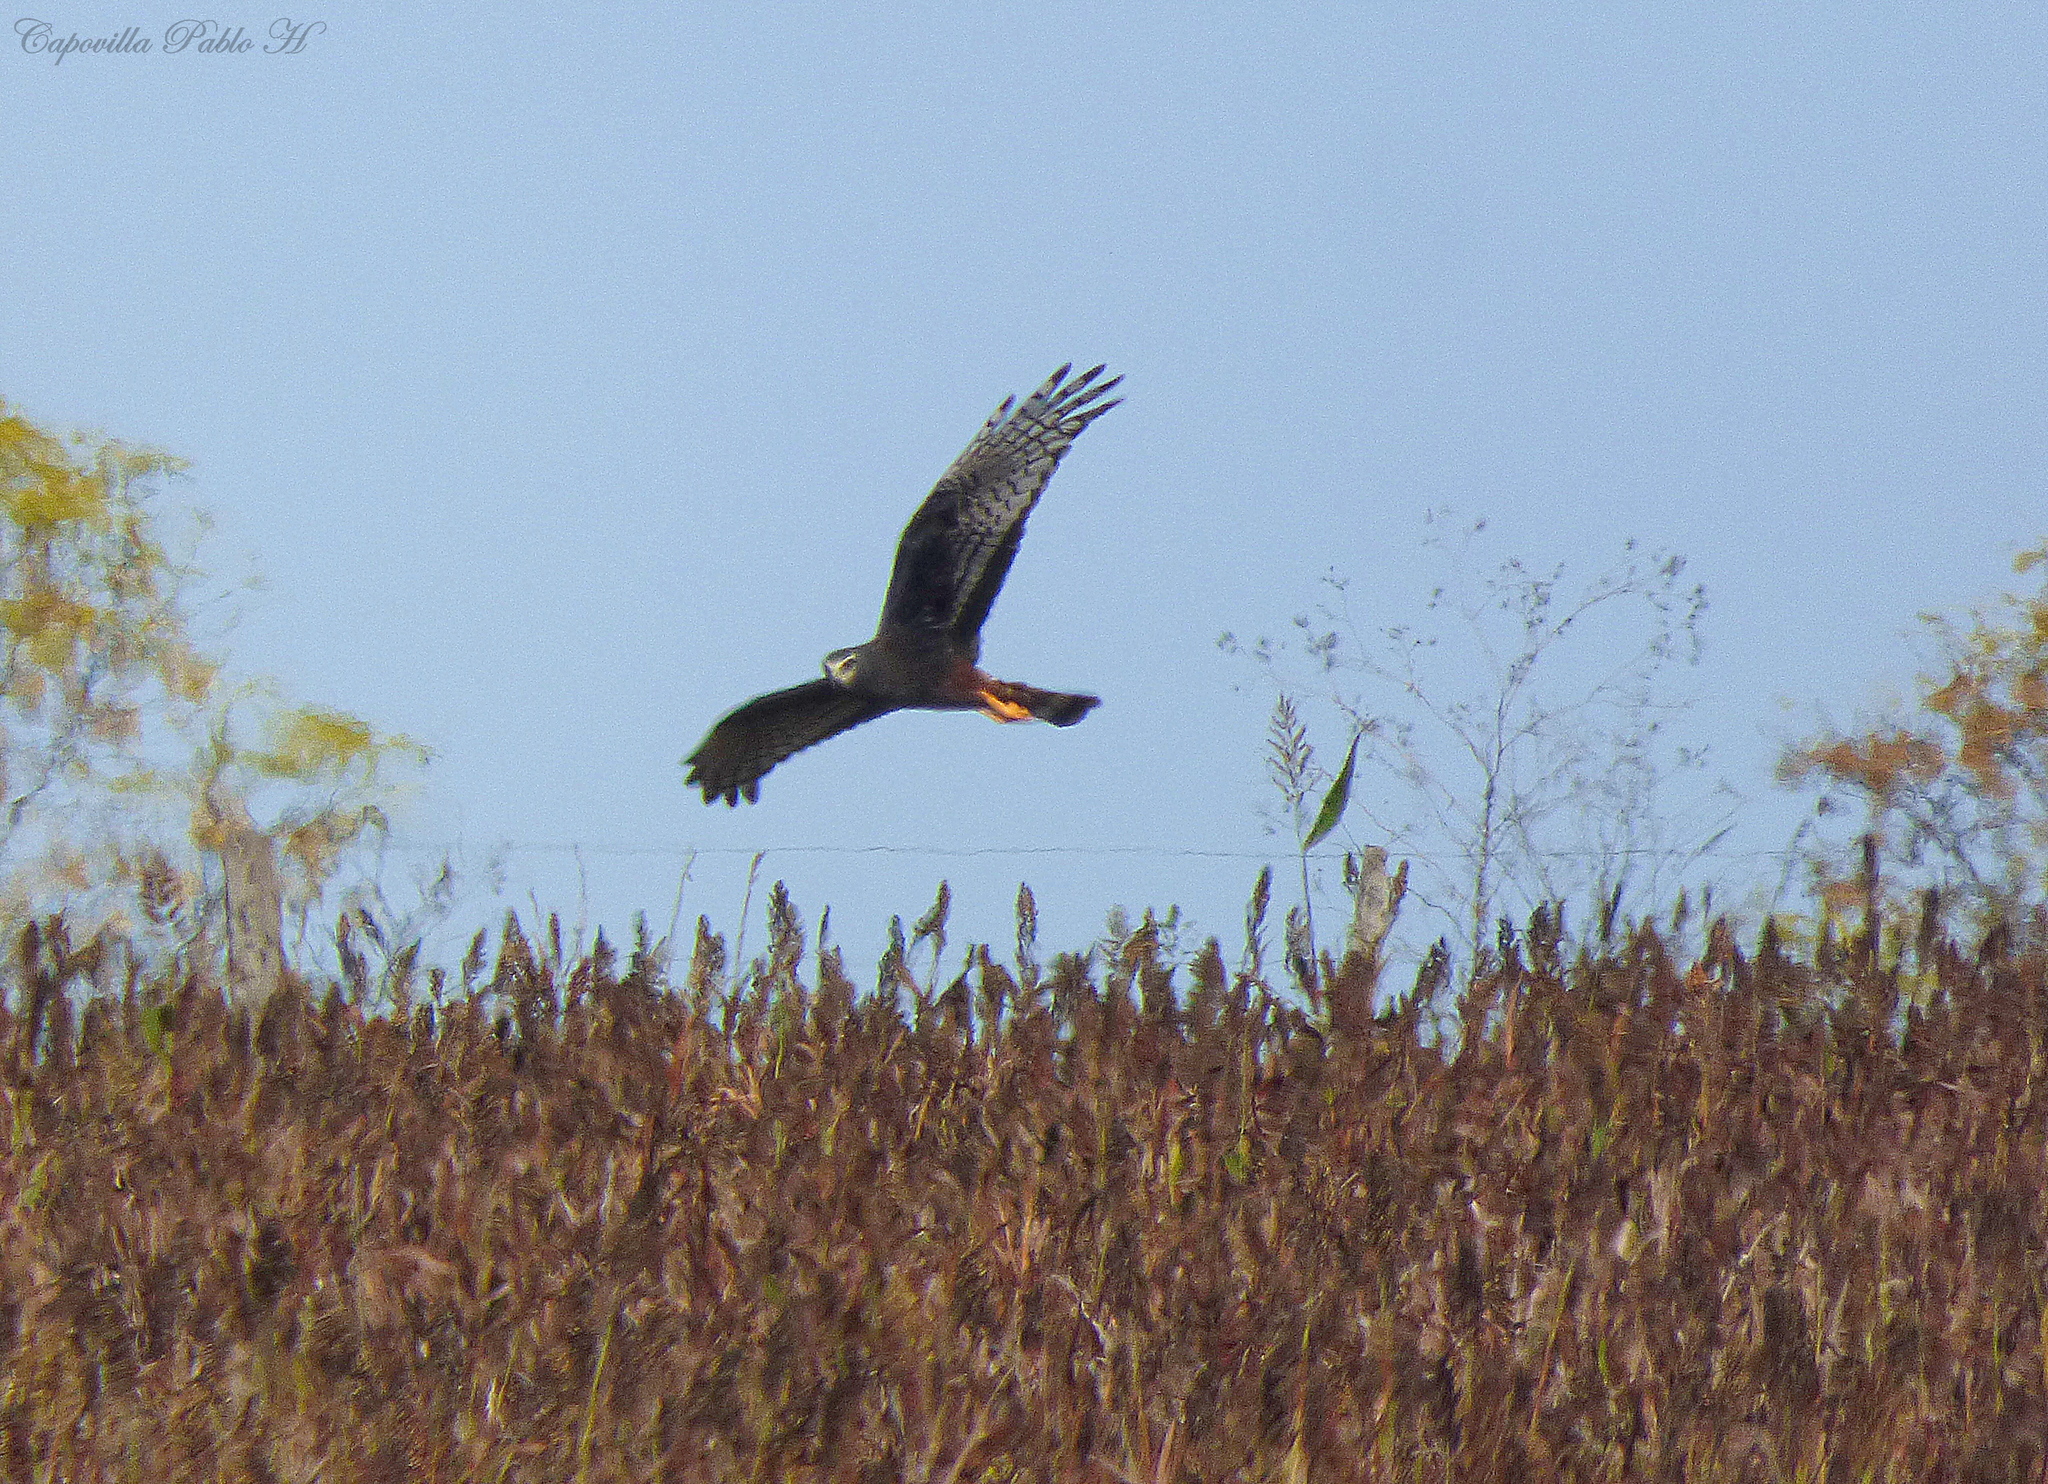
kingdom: Animalia
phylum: Chordata
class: Aves
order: Accipitriformes
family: Accipitridae
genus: Circus
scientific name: Circus buffoni
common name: Long-winged harrier
